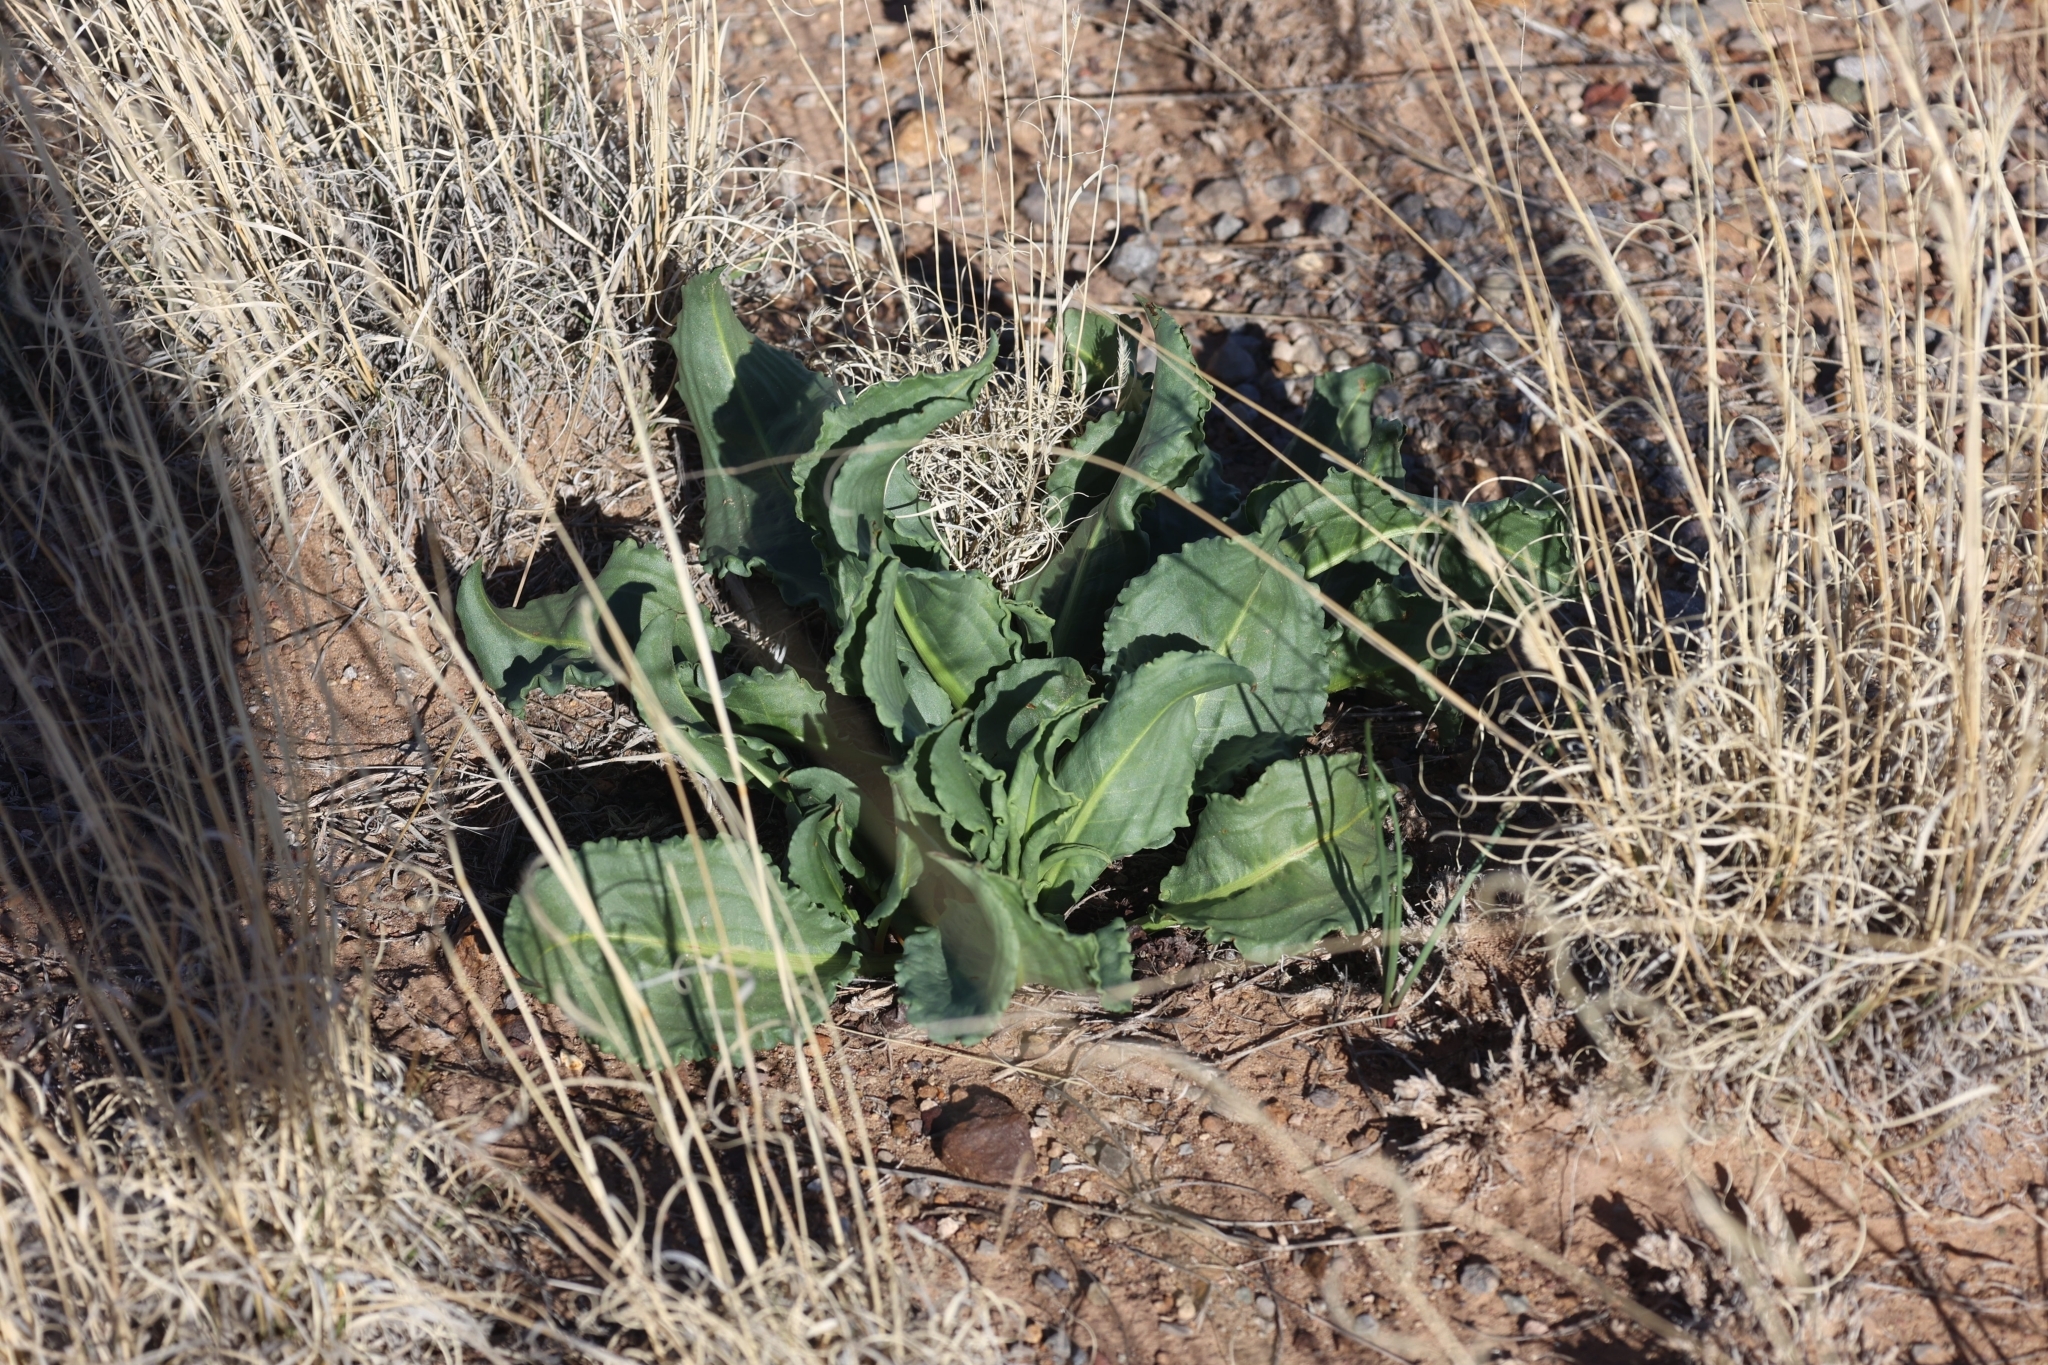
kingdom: Plantae
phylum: Tracheophyta
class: Magnoliopsida
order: Caryophyllales
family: Polygonaceae
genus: Rumex
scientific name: Rumex hymenosepalus
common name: Ganagra
